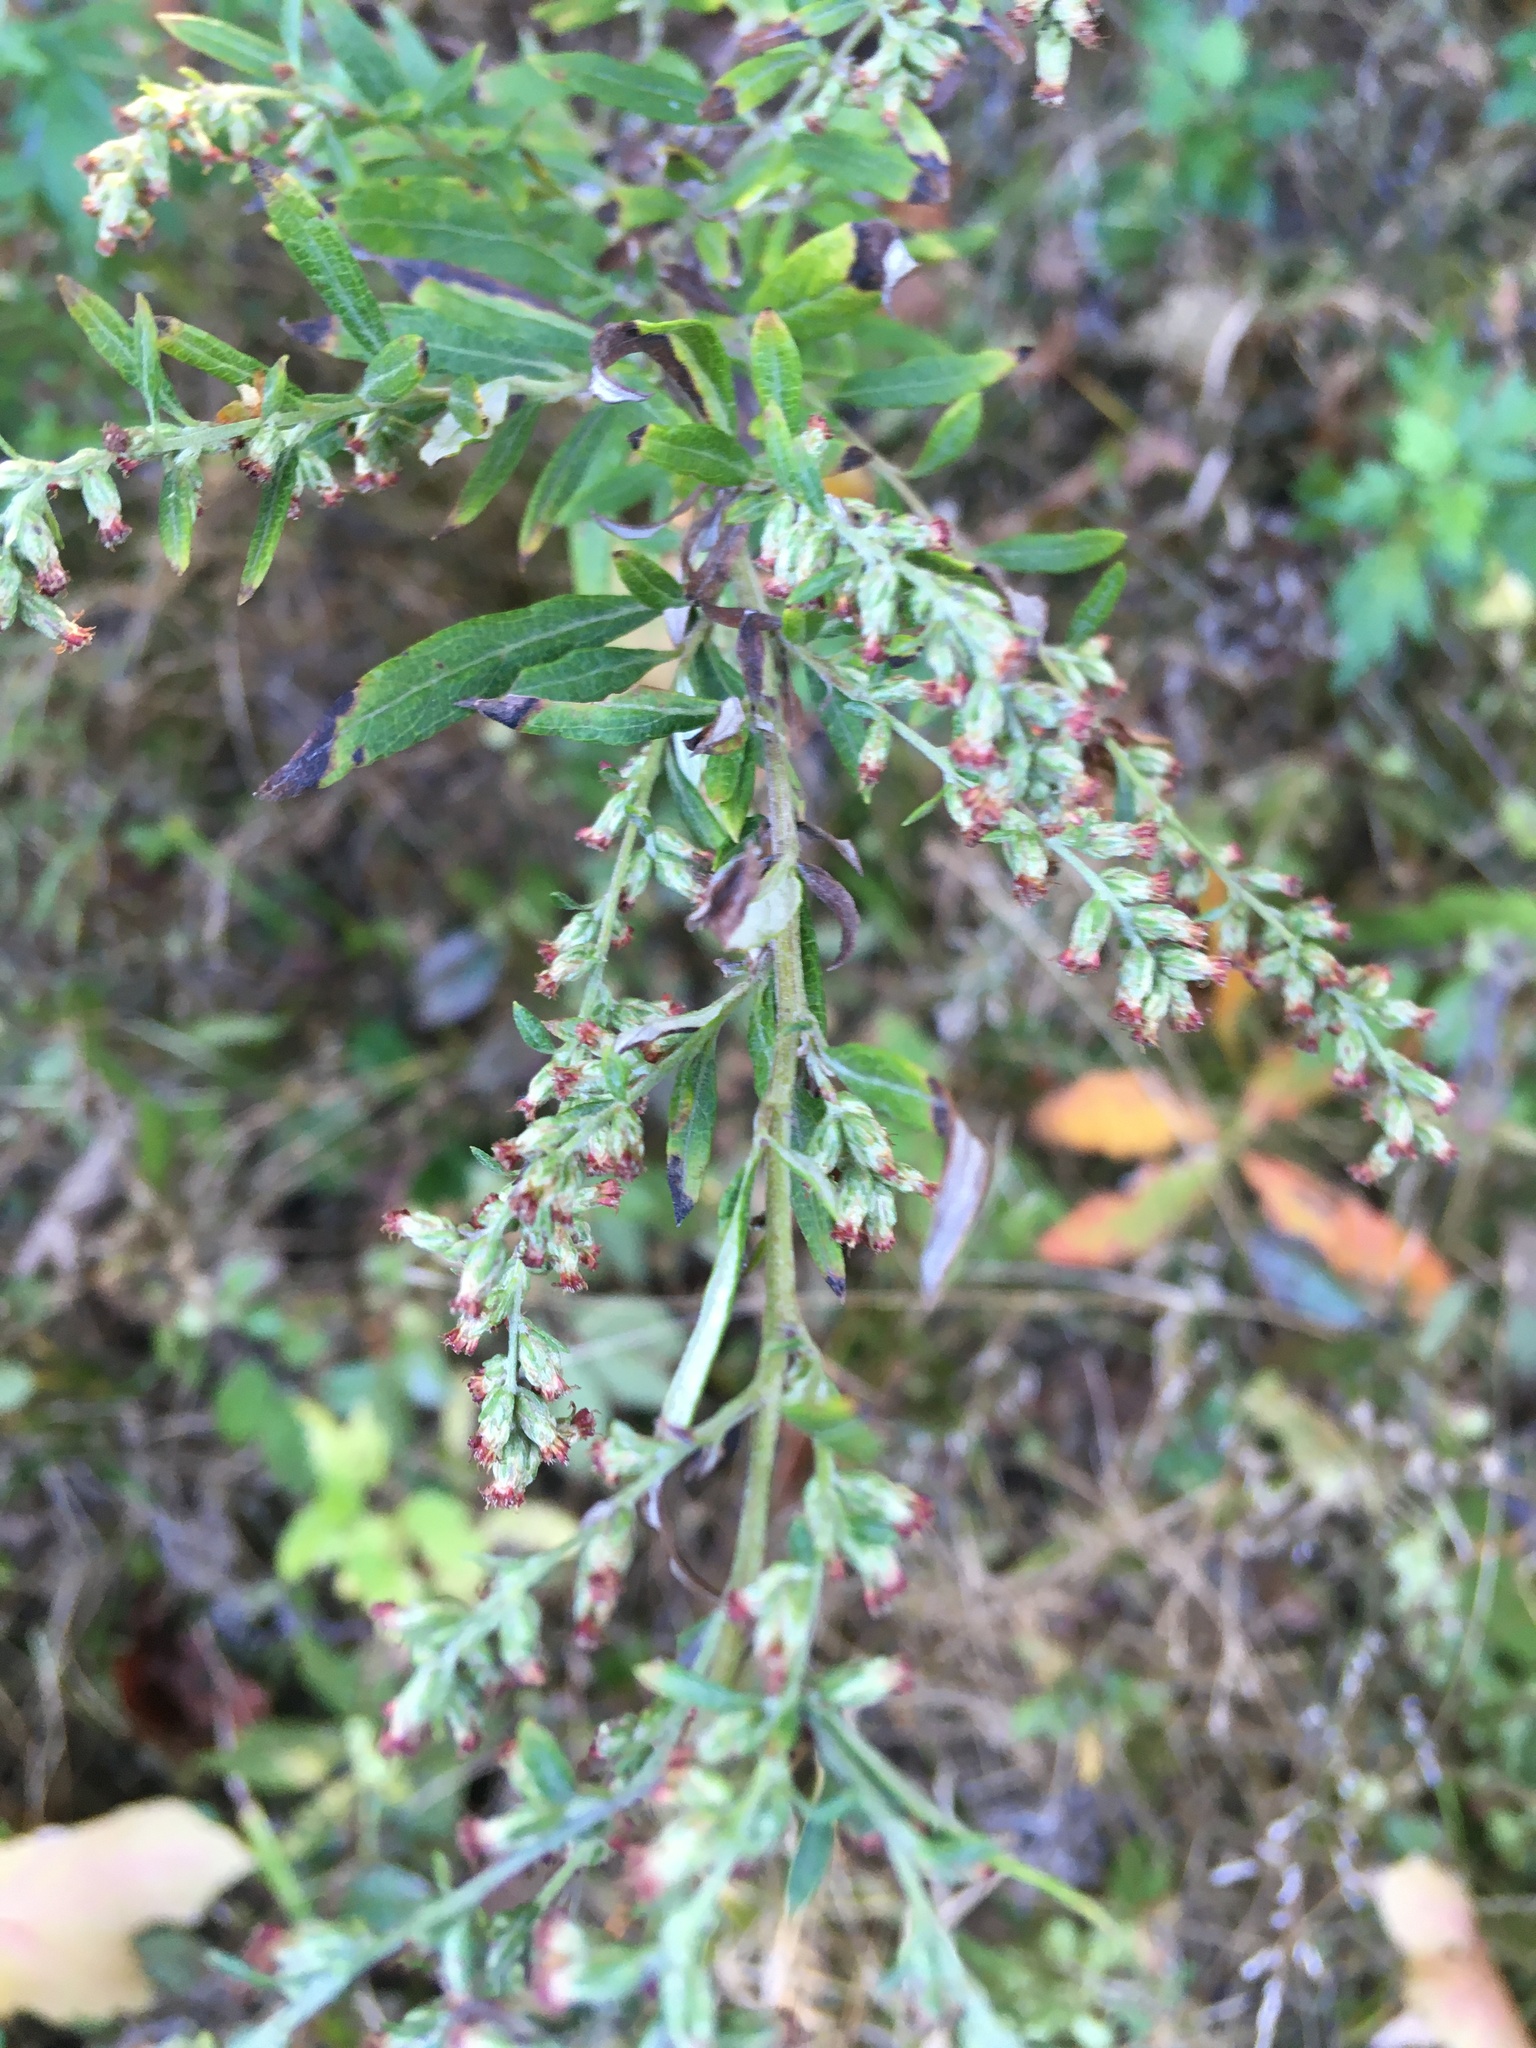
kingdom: Plantae
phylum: Tracheophyta
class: Magnoliopsida
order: Asterales
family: Asteraceae
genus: Artemisia
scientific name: Artemisia vulgaris
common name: Mugwort
